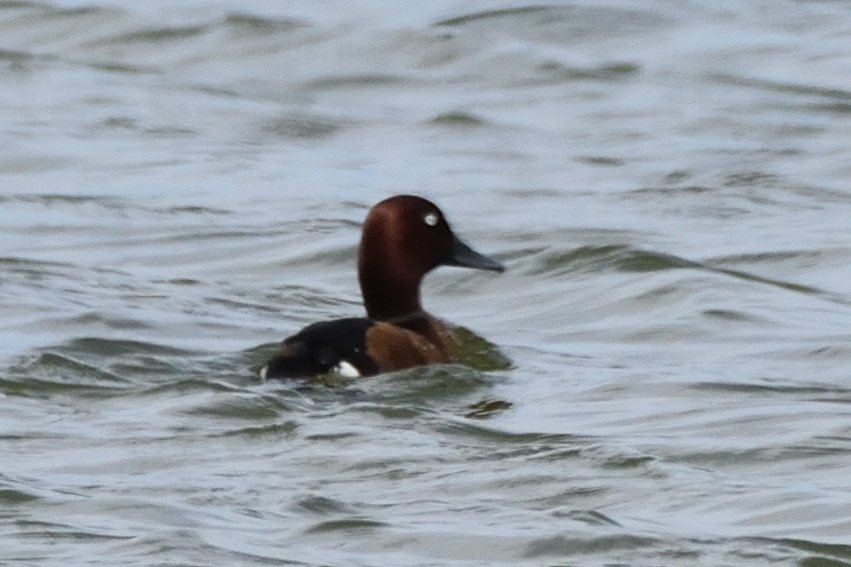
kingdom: Animalia
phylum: Chordata
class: Aves
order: Anseriformes
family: Anatidae
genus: Aythya
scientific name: Aythya nyroca
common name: Ferruginous duck
